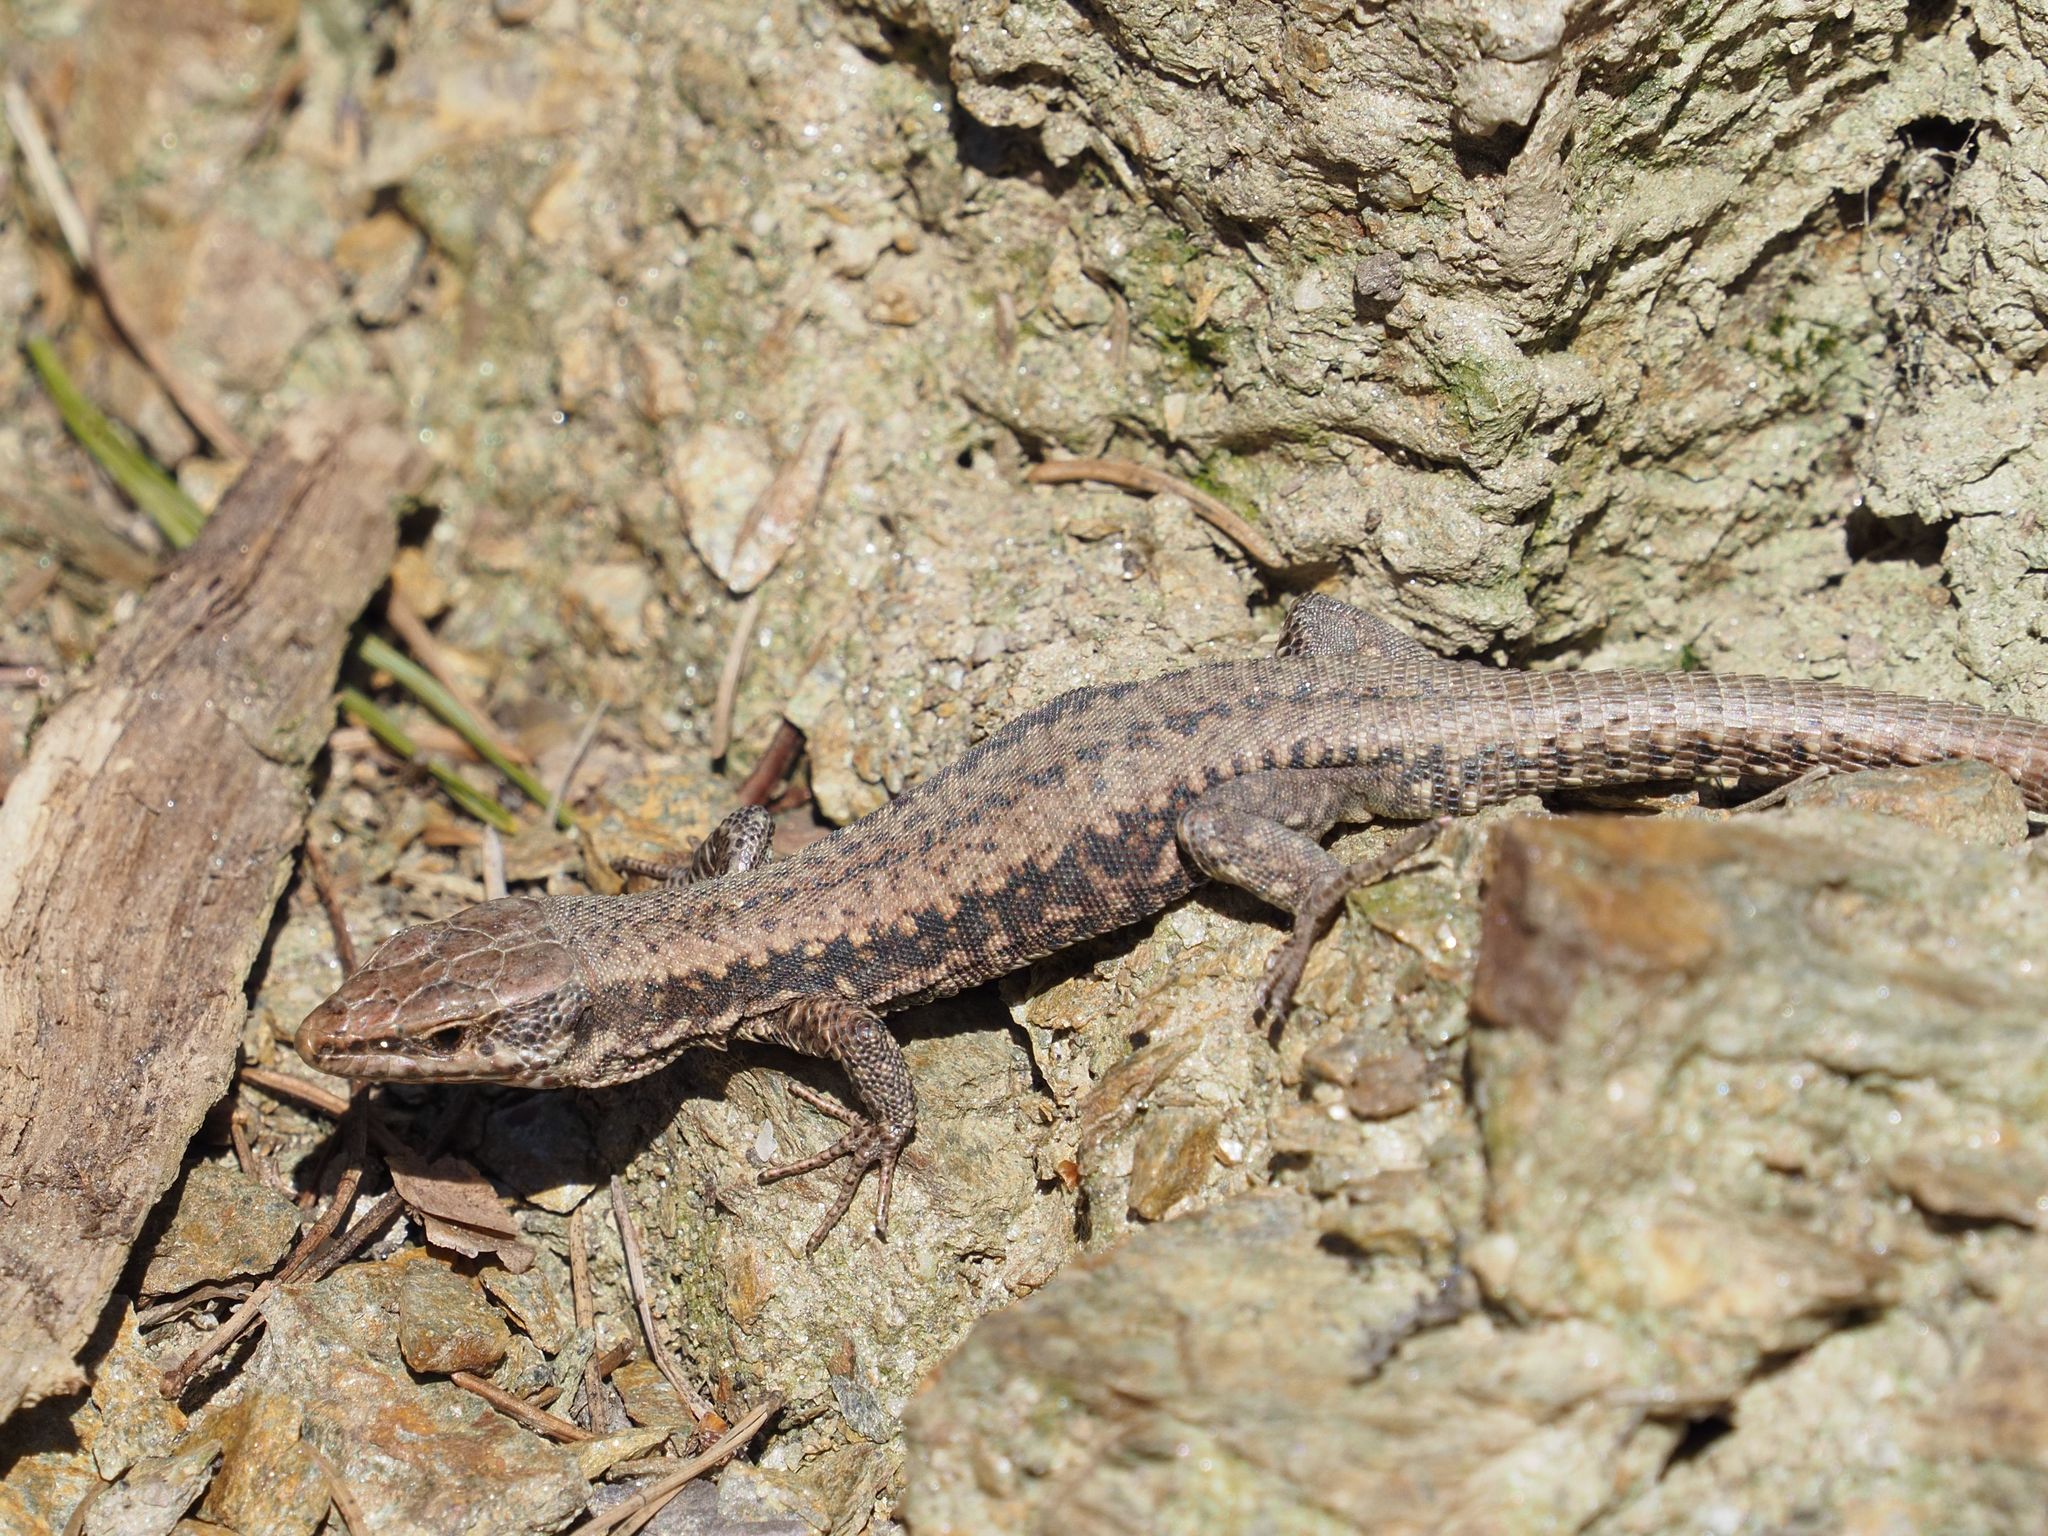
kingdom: Animalia
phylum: Chordata
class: Squamata
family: Lacertidae
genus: Podarcis
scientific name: Podarcis muralis
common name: Common wall lizard
